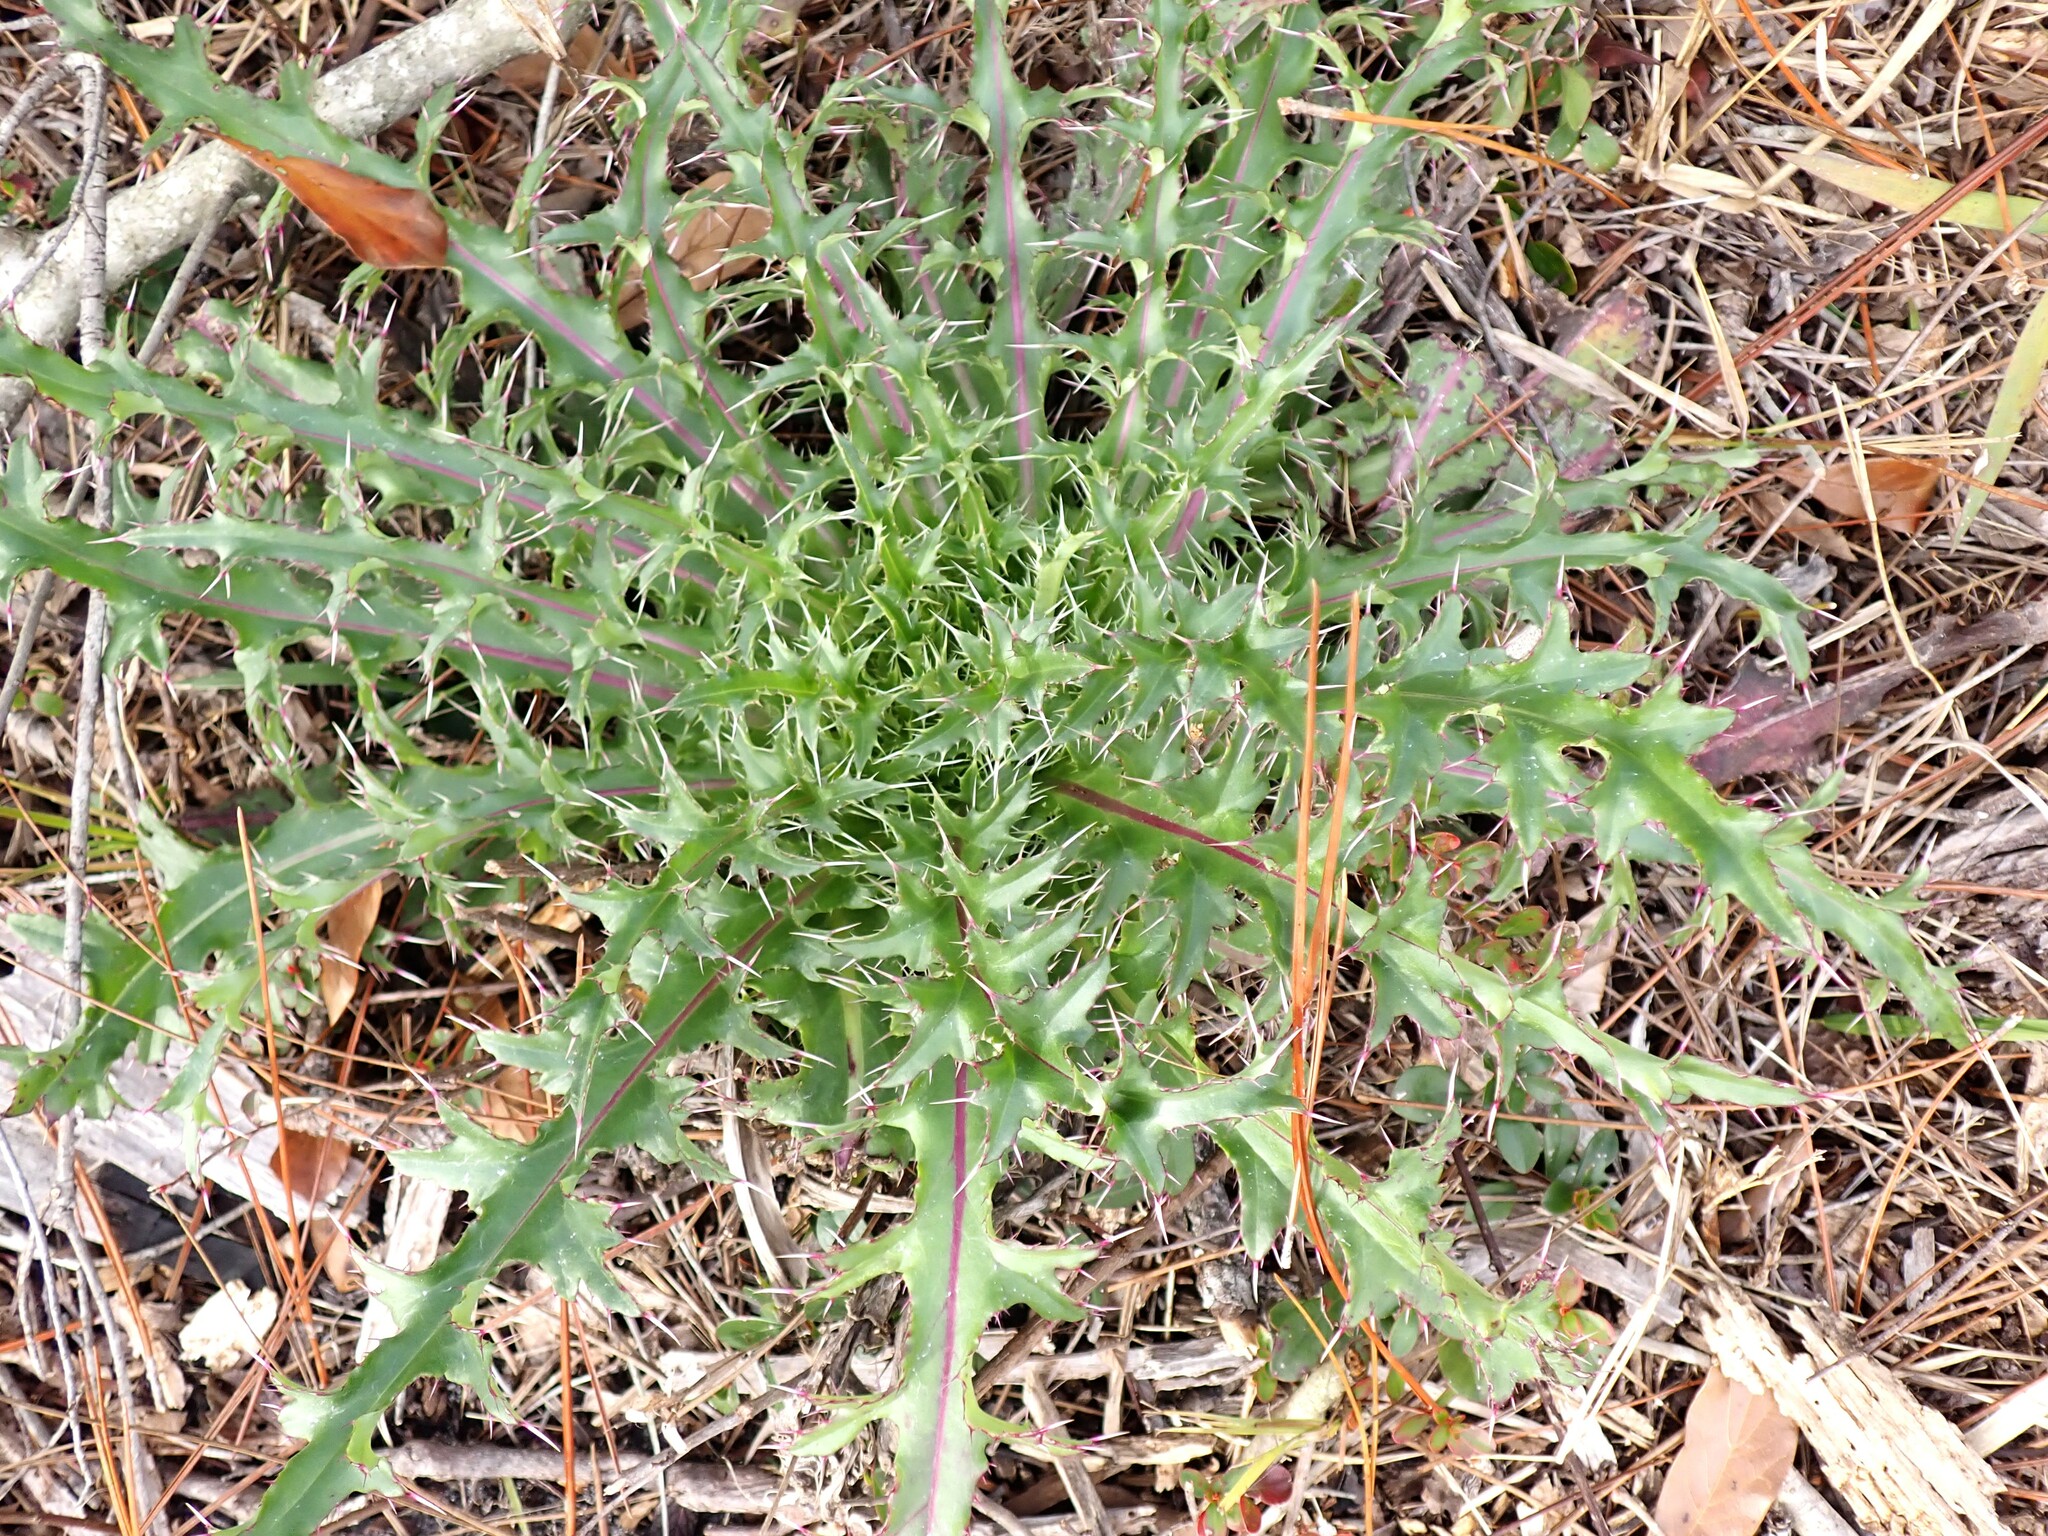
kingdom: Plantae
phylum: Tracheophyta
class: Magnoliopsida
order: Asterales
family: Asteraceae
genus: Cirsium
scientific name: Cirsium horridulum
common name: Bristly thistle
